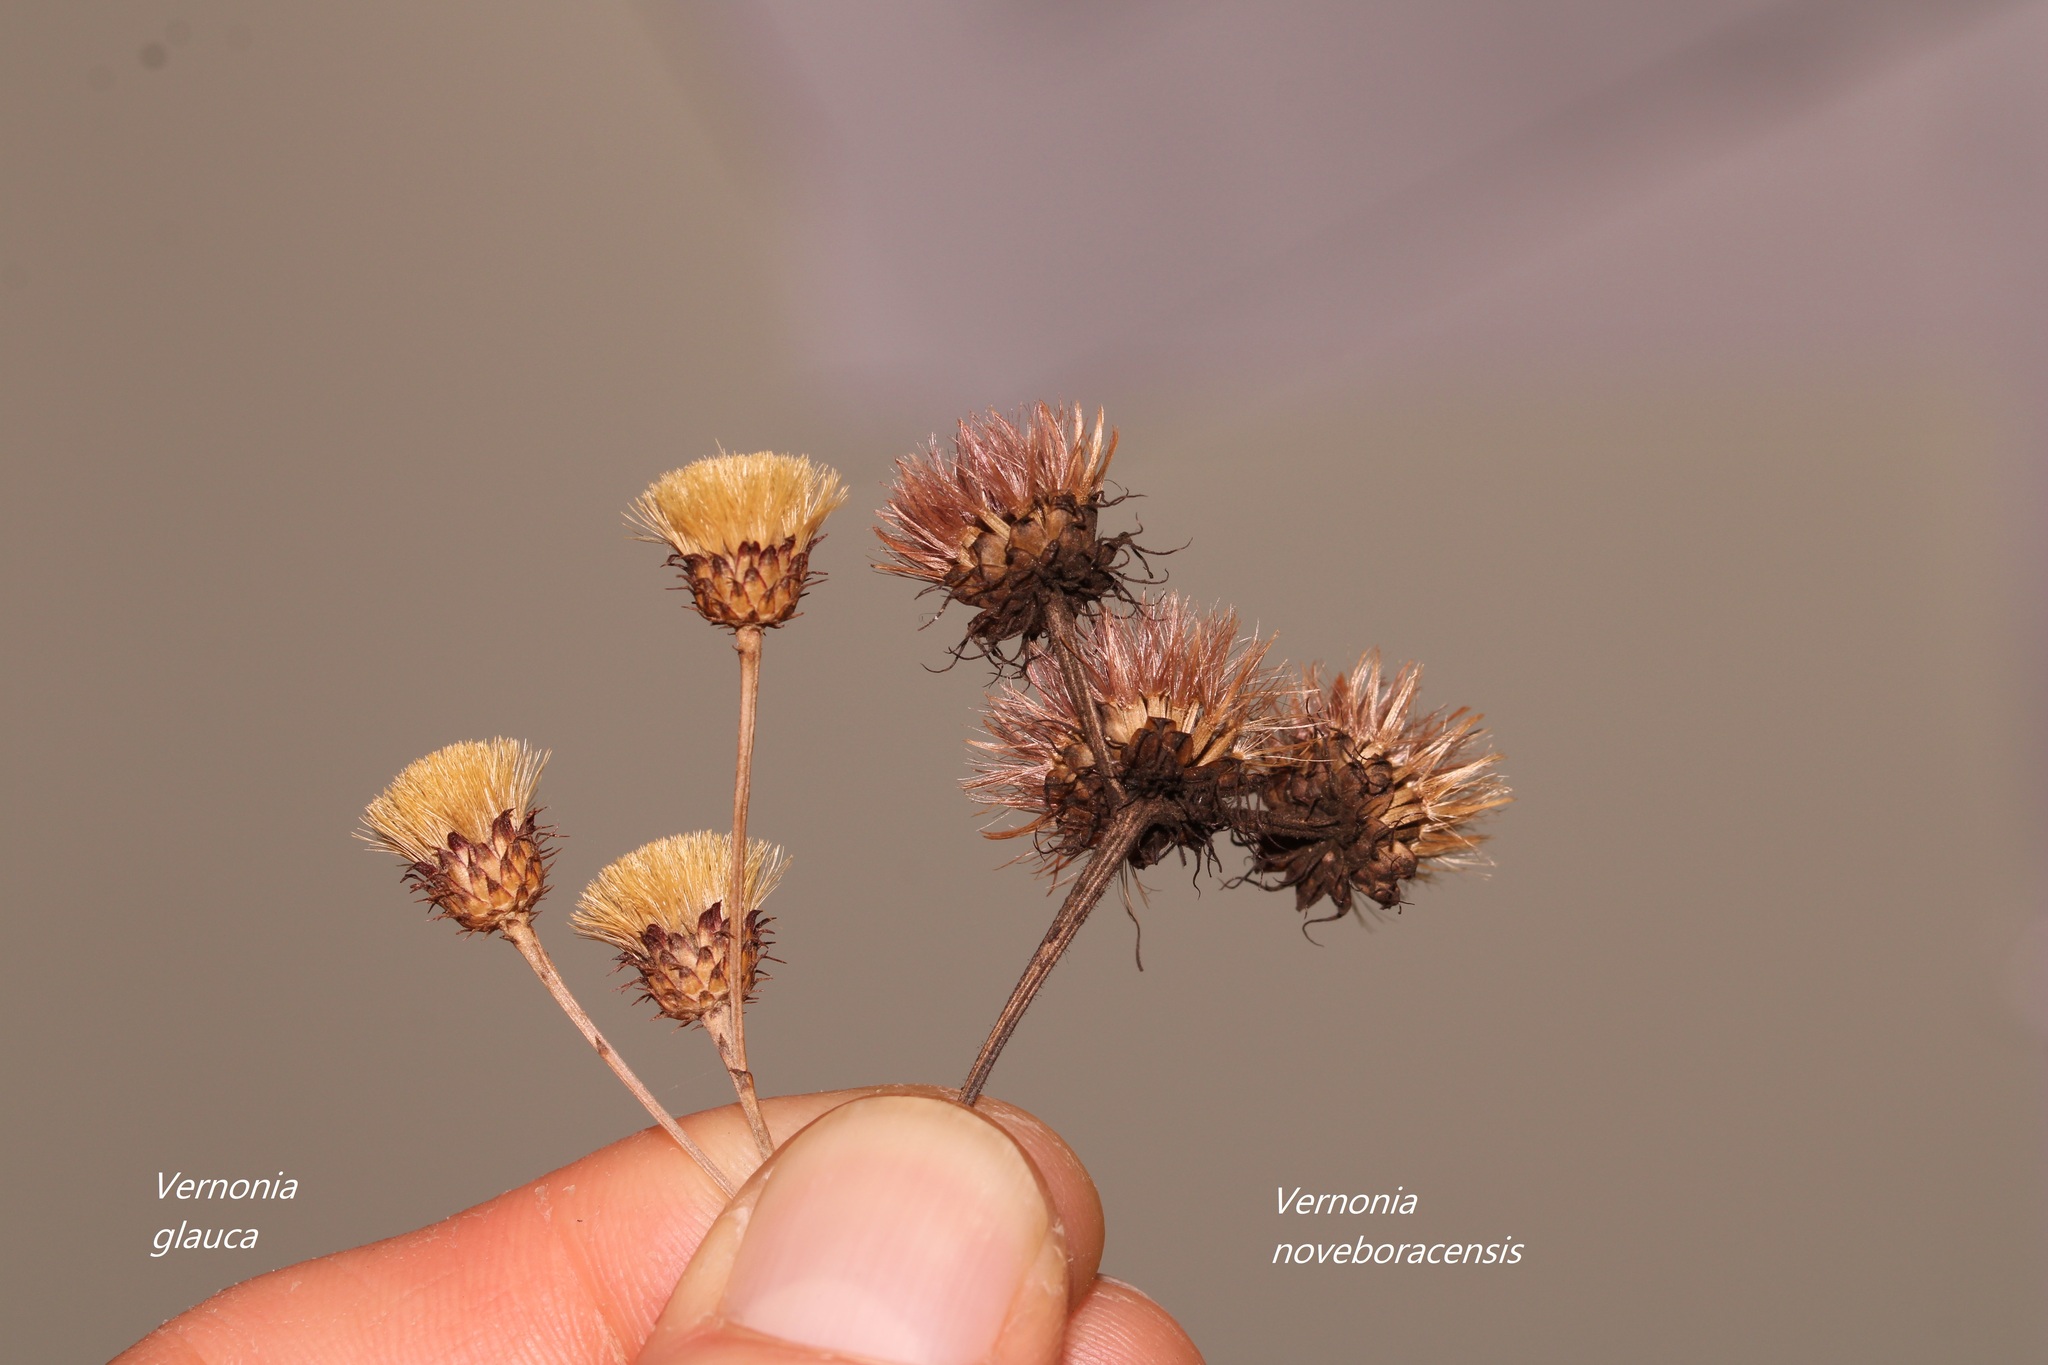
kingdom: Plantae
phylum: Tracheophyta
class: Magnoliopsida
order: Asterales
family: Asteraceae
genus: Vernonia
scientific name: Vernonia noveboracensis
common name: New york ironweed
